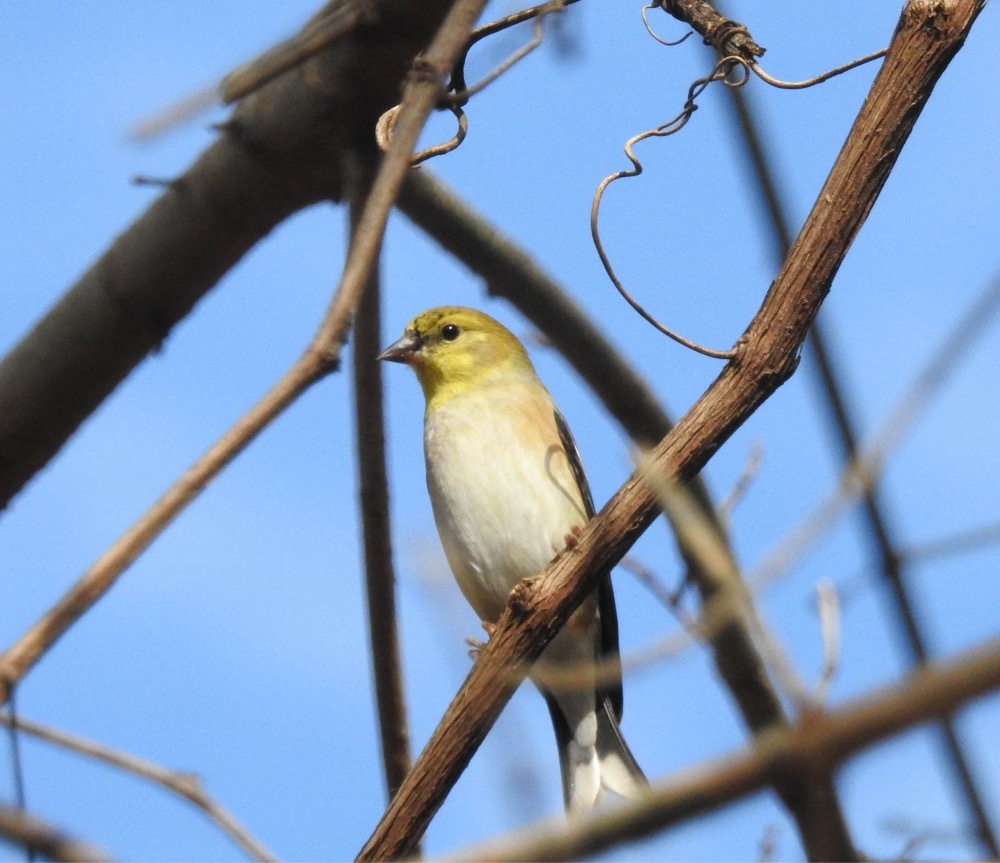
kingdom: Animalia
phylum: Chordata
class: Aves
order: Passeriformes
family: Fringillidae
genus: Spinus
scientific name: Spinus tristis
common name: American goldfinch
